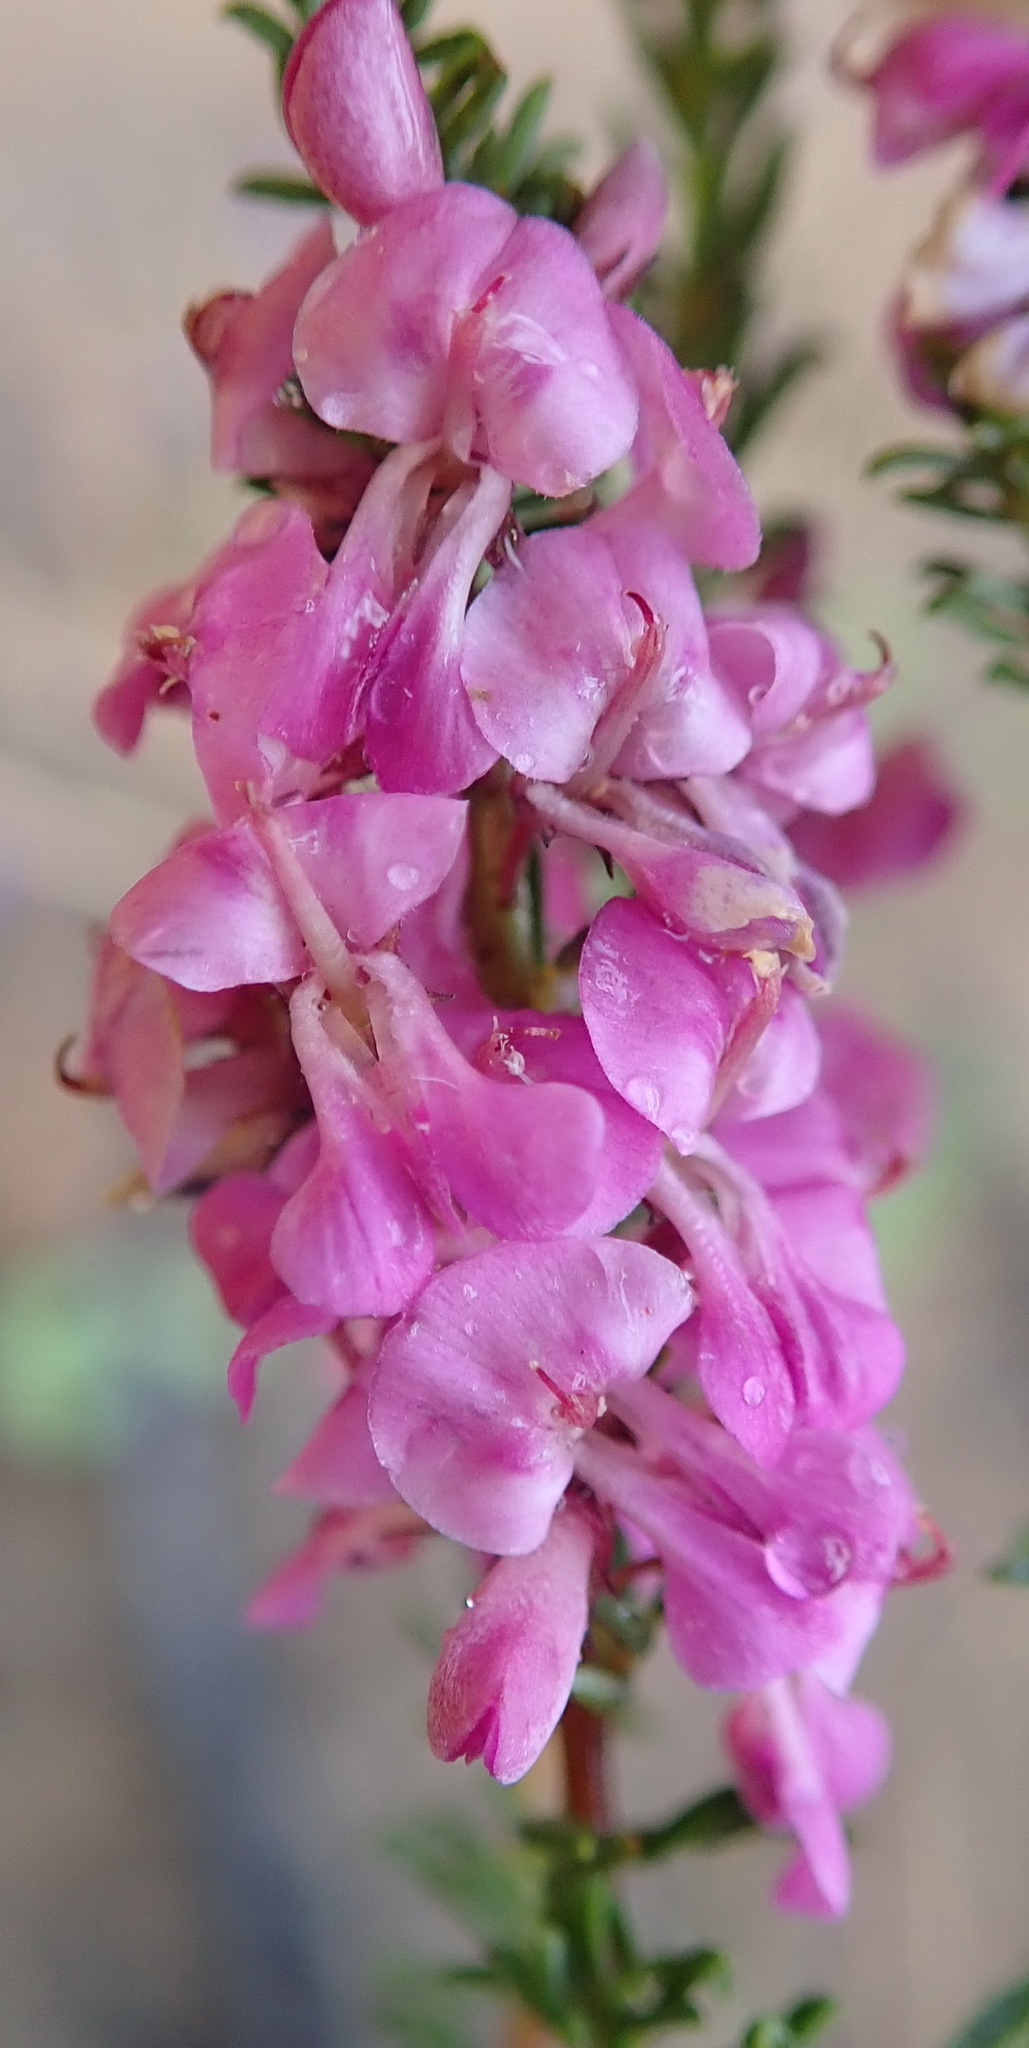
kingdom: Plantae
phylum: Tracheophyta
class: Magnoliopsida
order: Fabales
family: Fabaceae
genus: Indigofera
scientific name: Indigofera pappei
